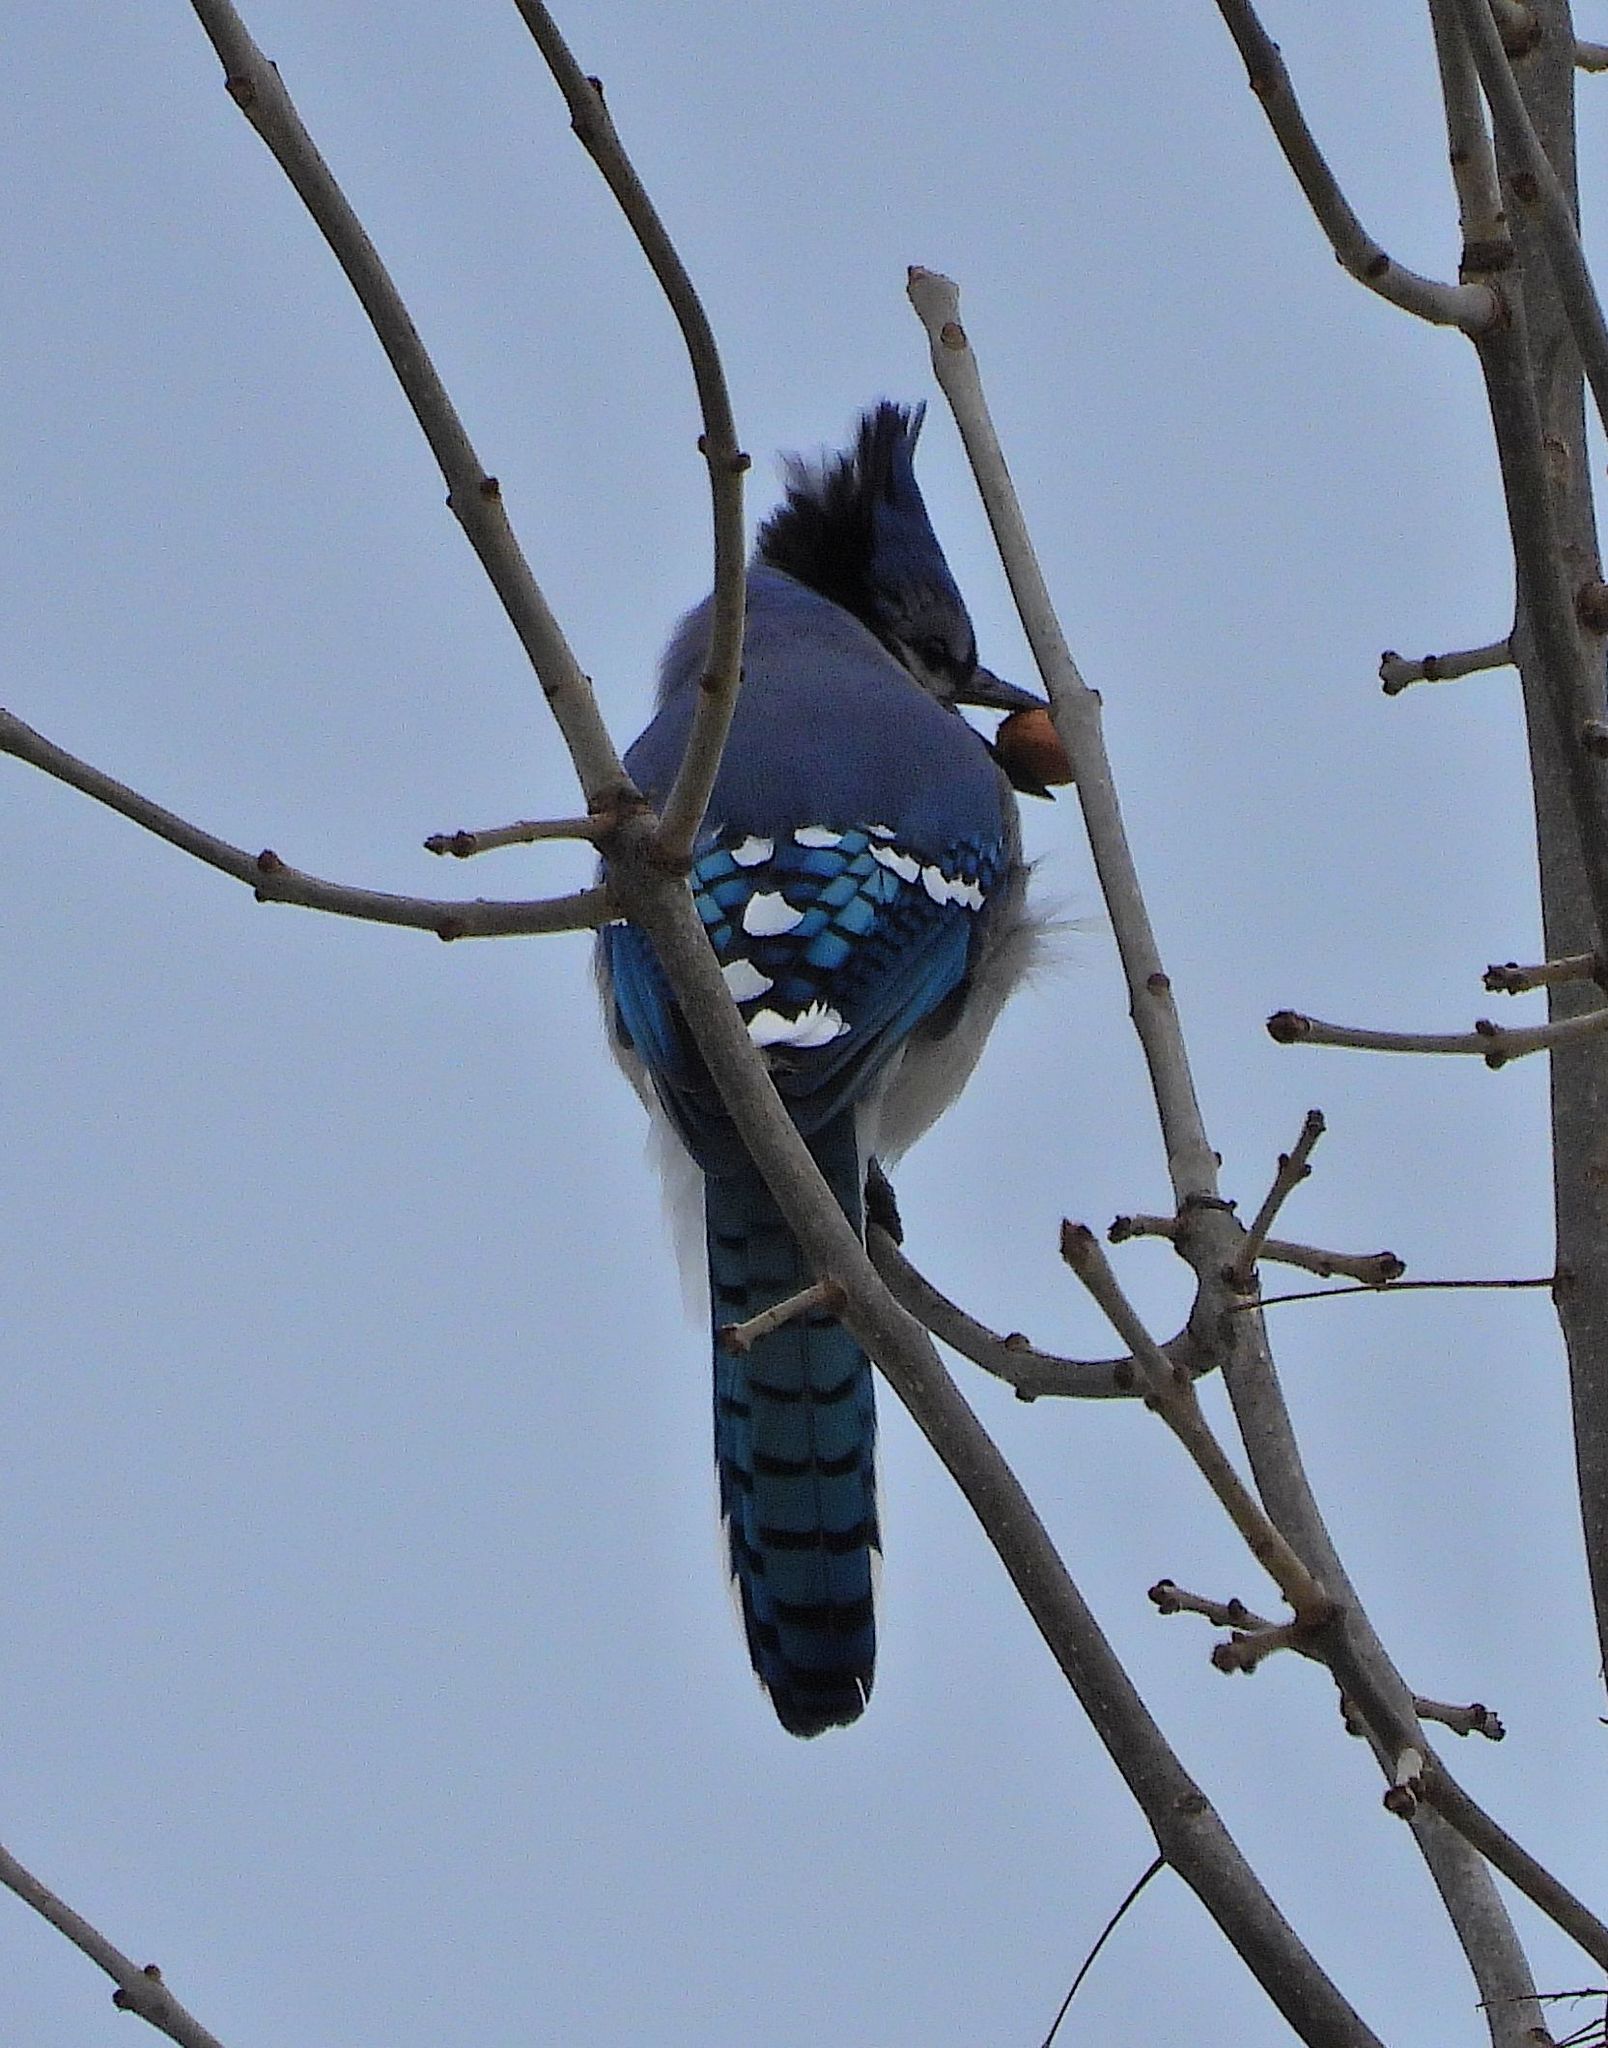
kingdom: Animalia
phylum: Chordata
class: Aves
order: Passeriformes
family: Corvidae
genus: Cyanocitta
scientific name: Cyanocitta cristata
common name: Blue jay
